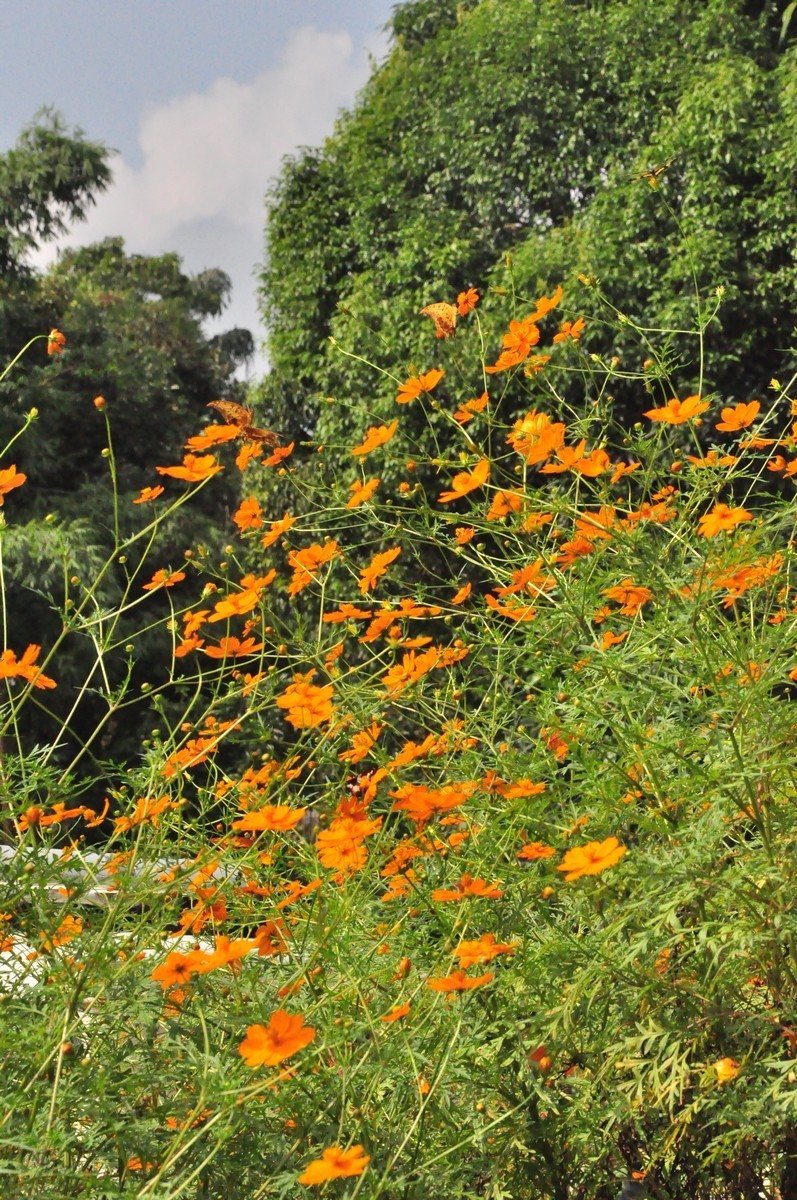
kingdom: Plantae
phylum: Tracheophyta
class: Magnoliopsida
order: Asterales
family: Asteraceae
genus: Cosmos
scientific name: Cosmos sulphureus
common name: Sulphur cosmos
